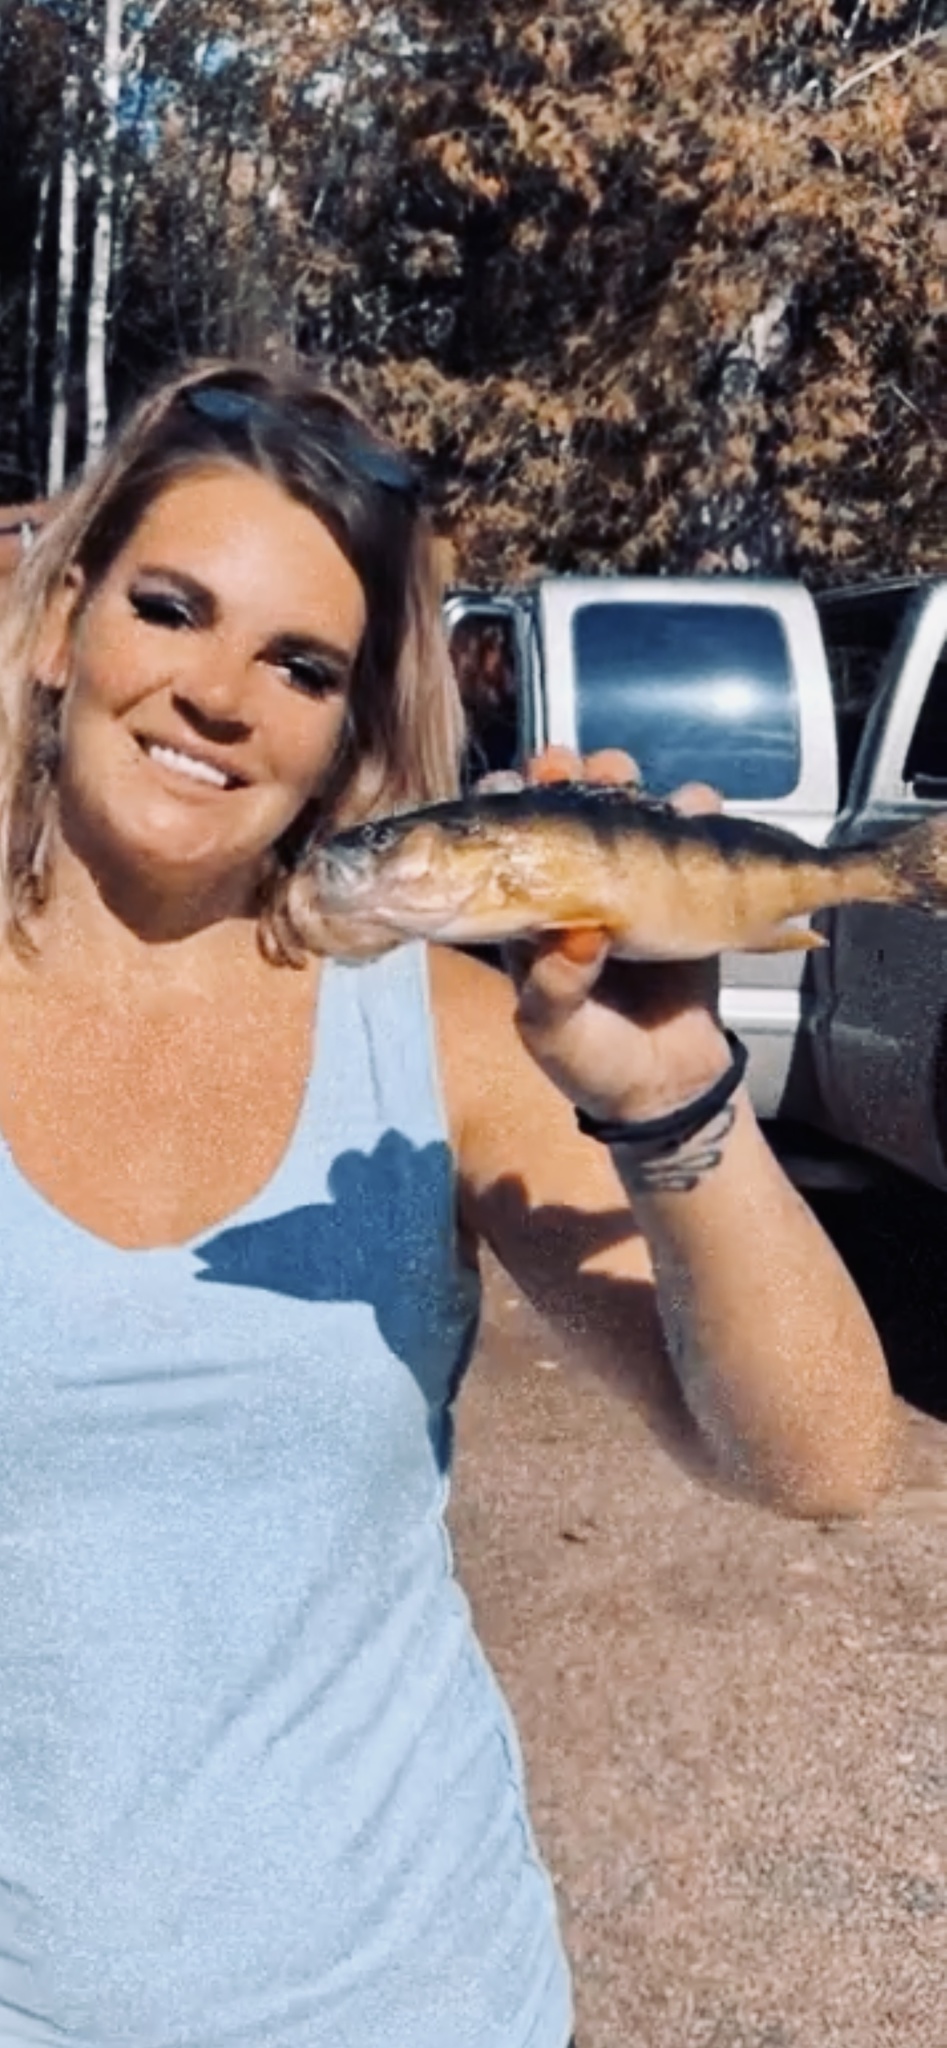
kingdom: Animalia
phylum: Chordata
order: Perciformes
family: Percidae
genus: Perca
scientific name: Perca flavescens
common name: Yellow perch
